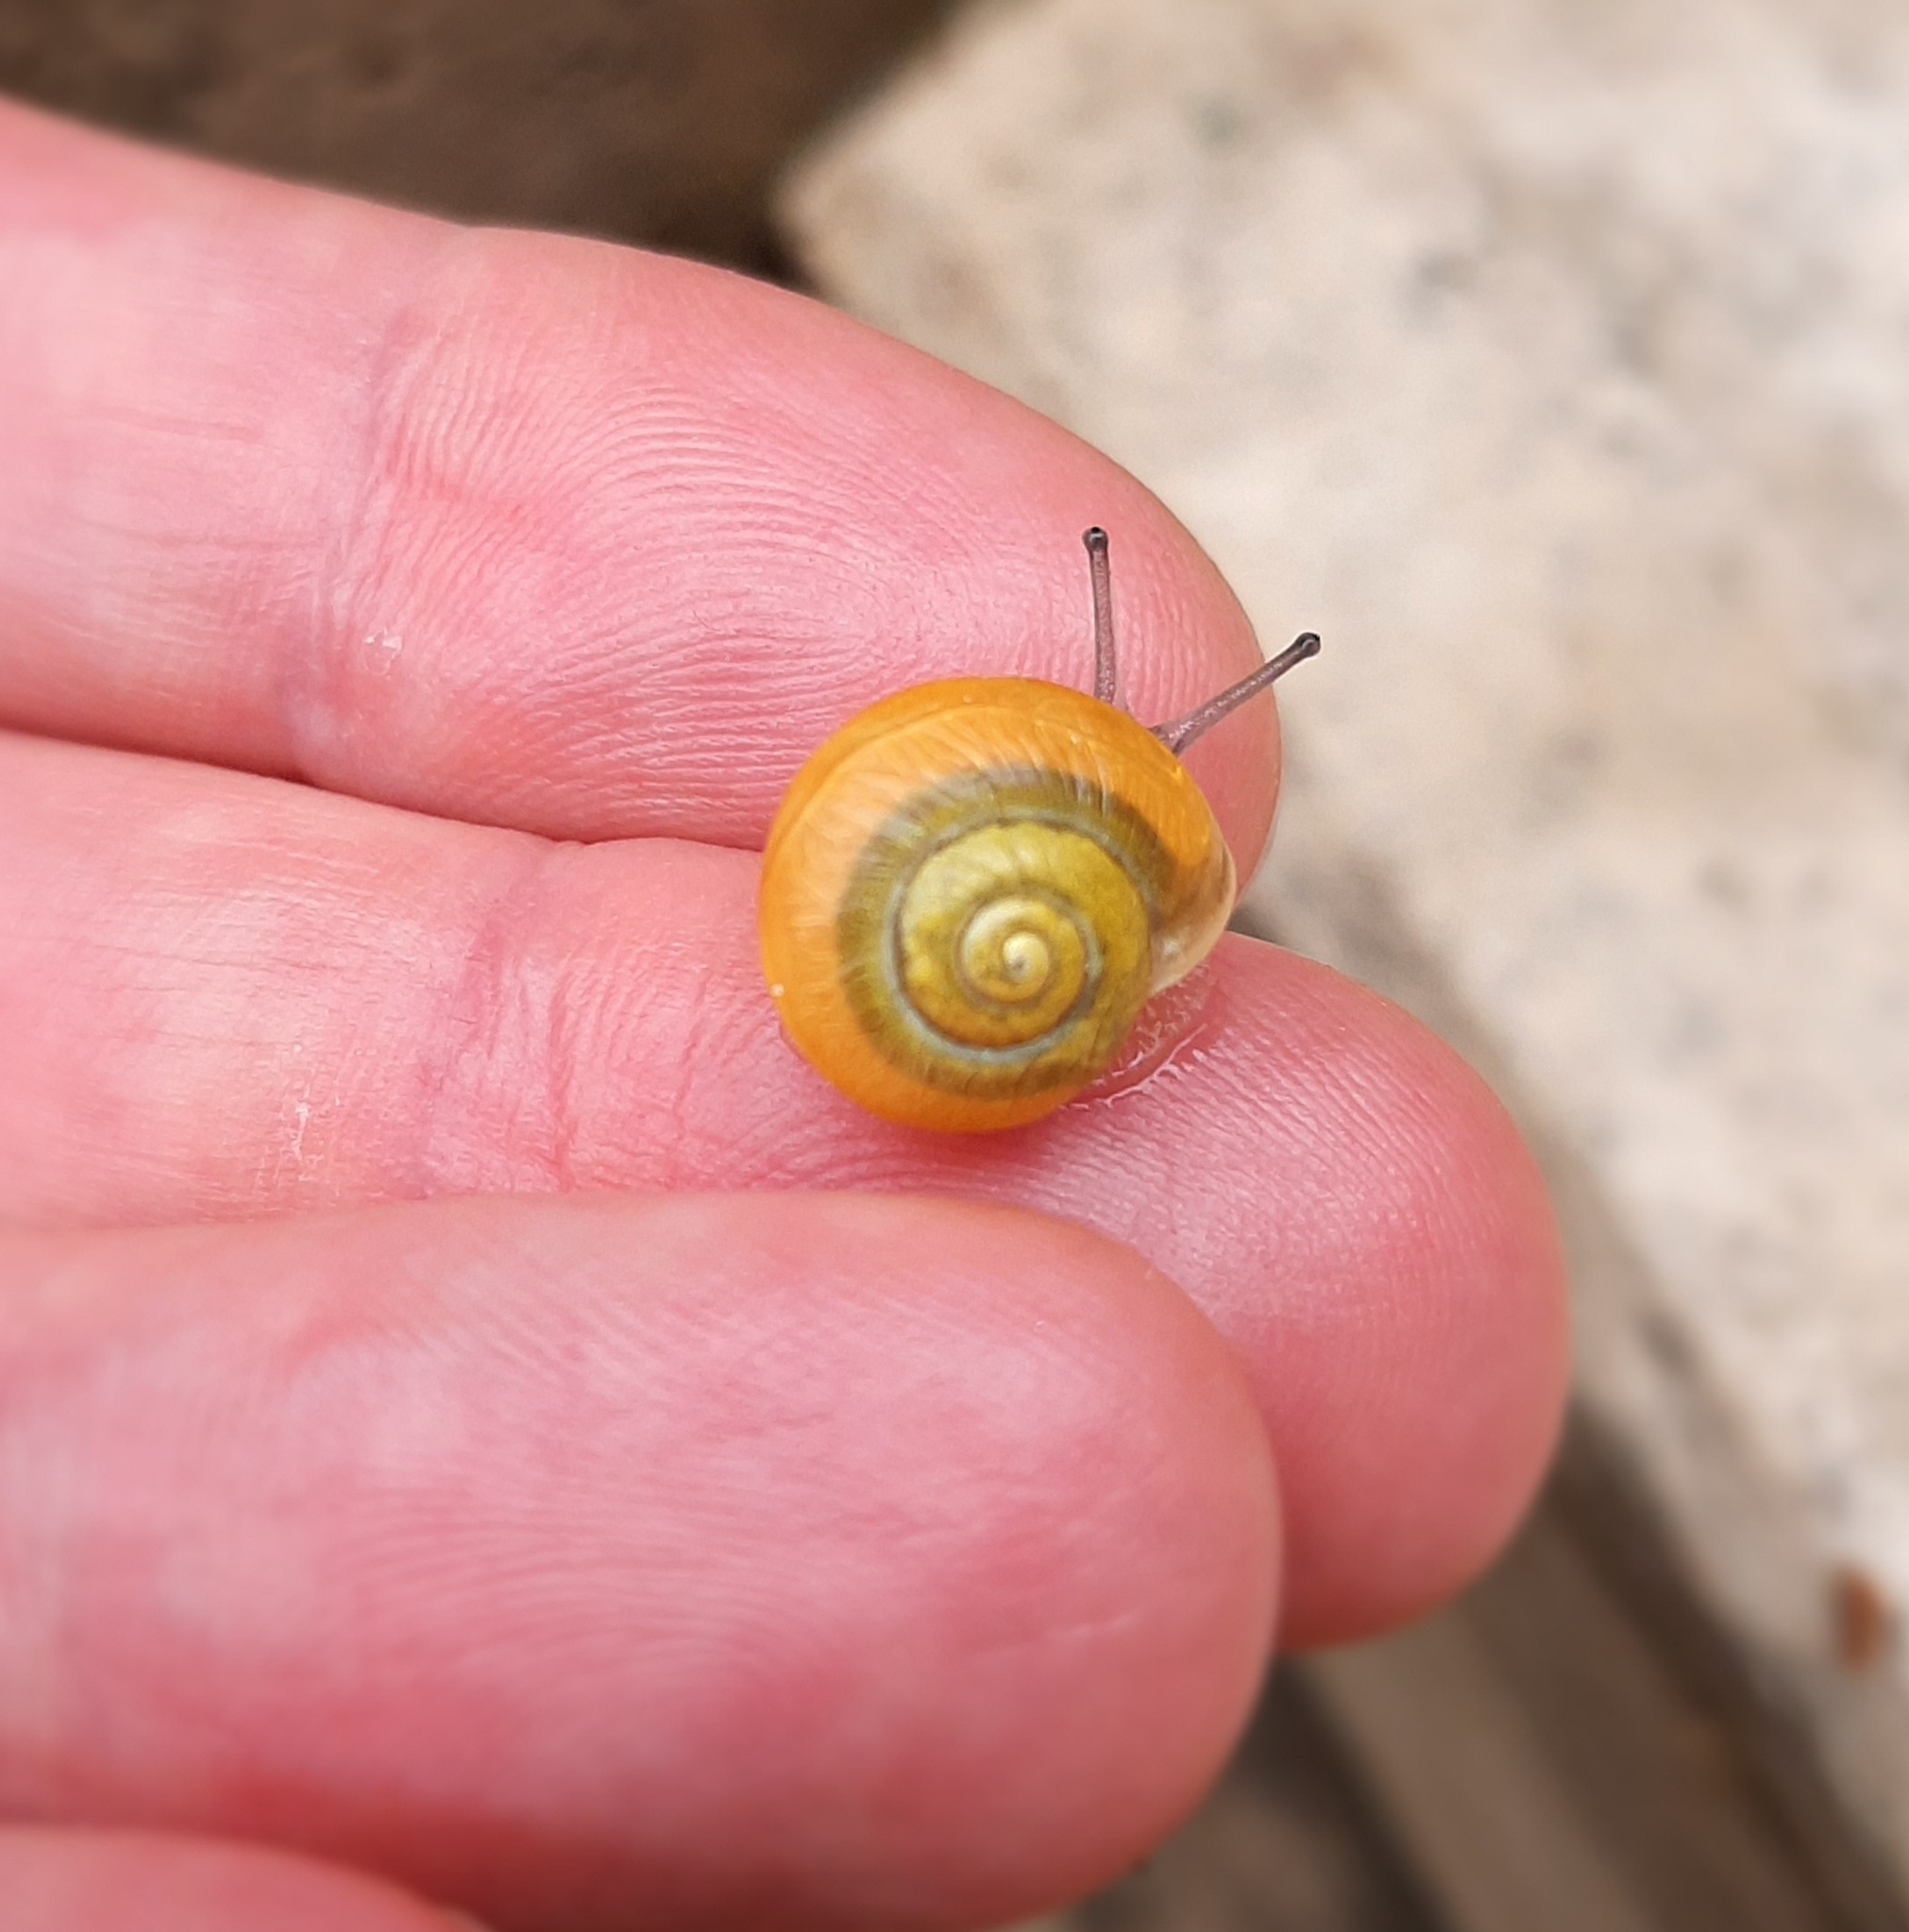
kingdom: Animalia
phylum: Mollusca
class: Gastropoda
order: Stylommatophora
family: Helicidae
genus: Cepaea
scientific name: Cepaea
